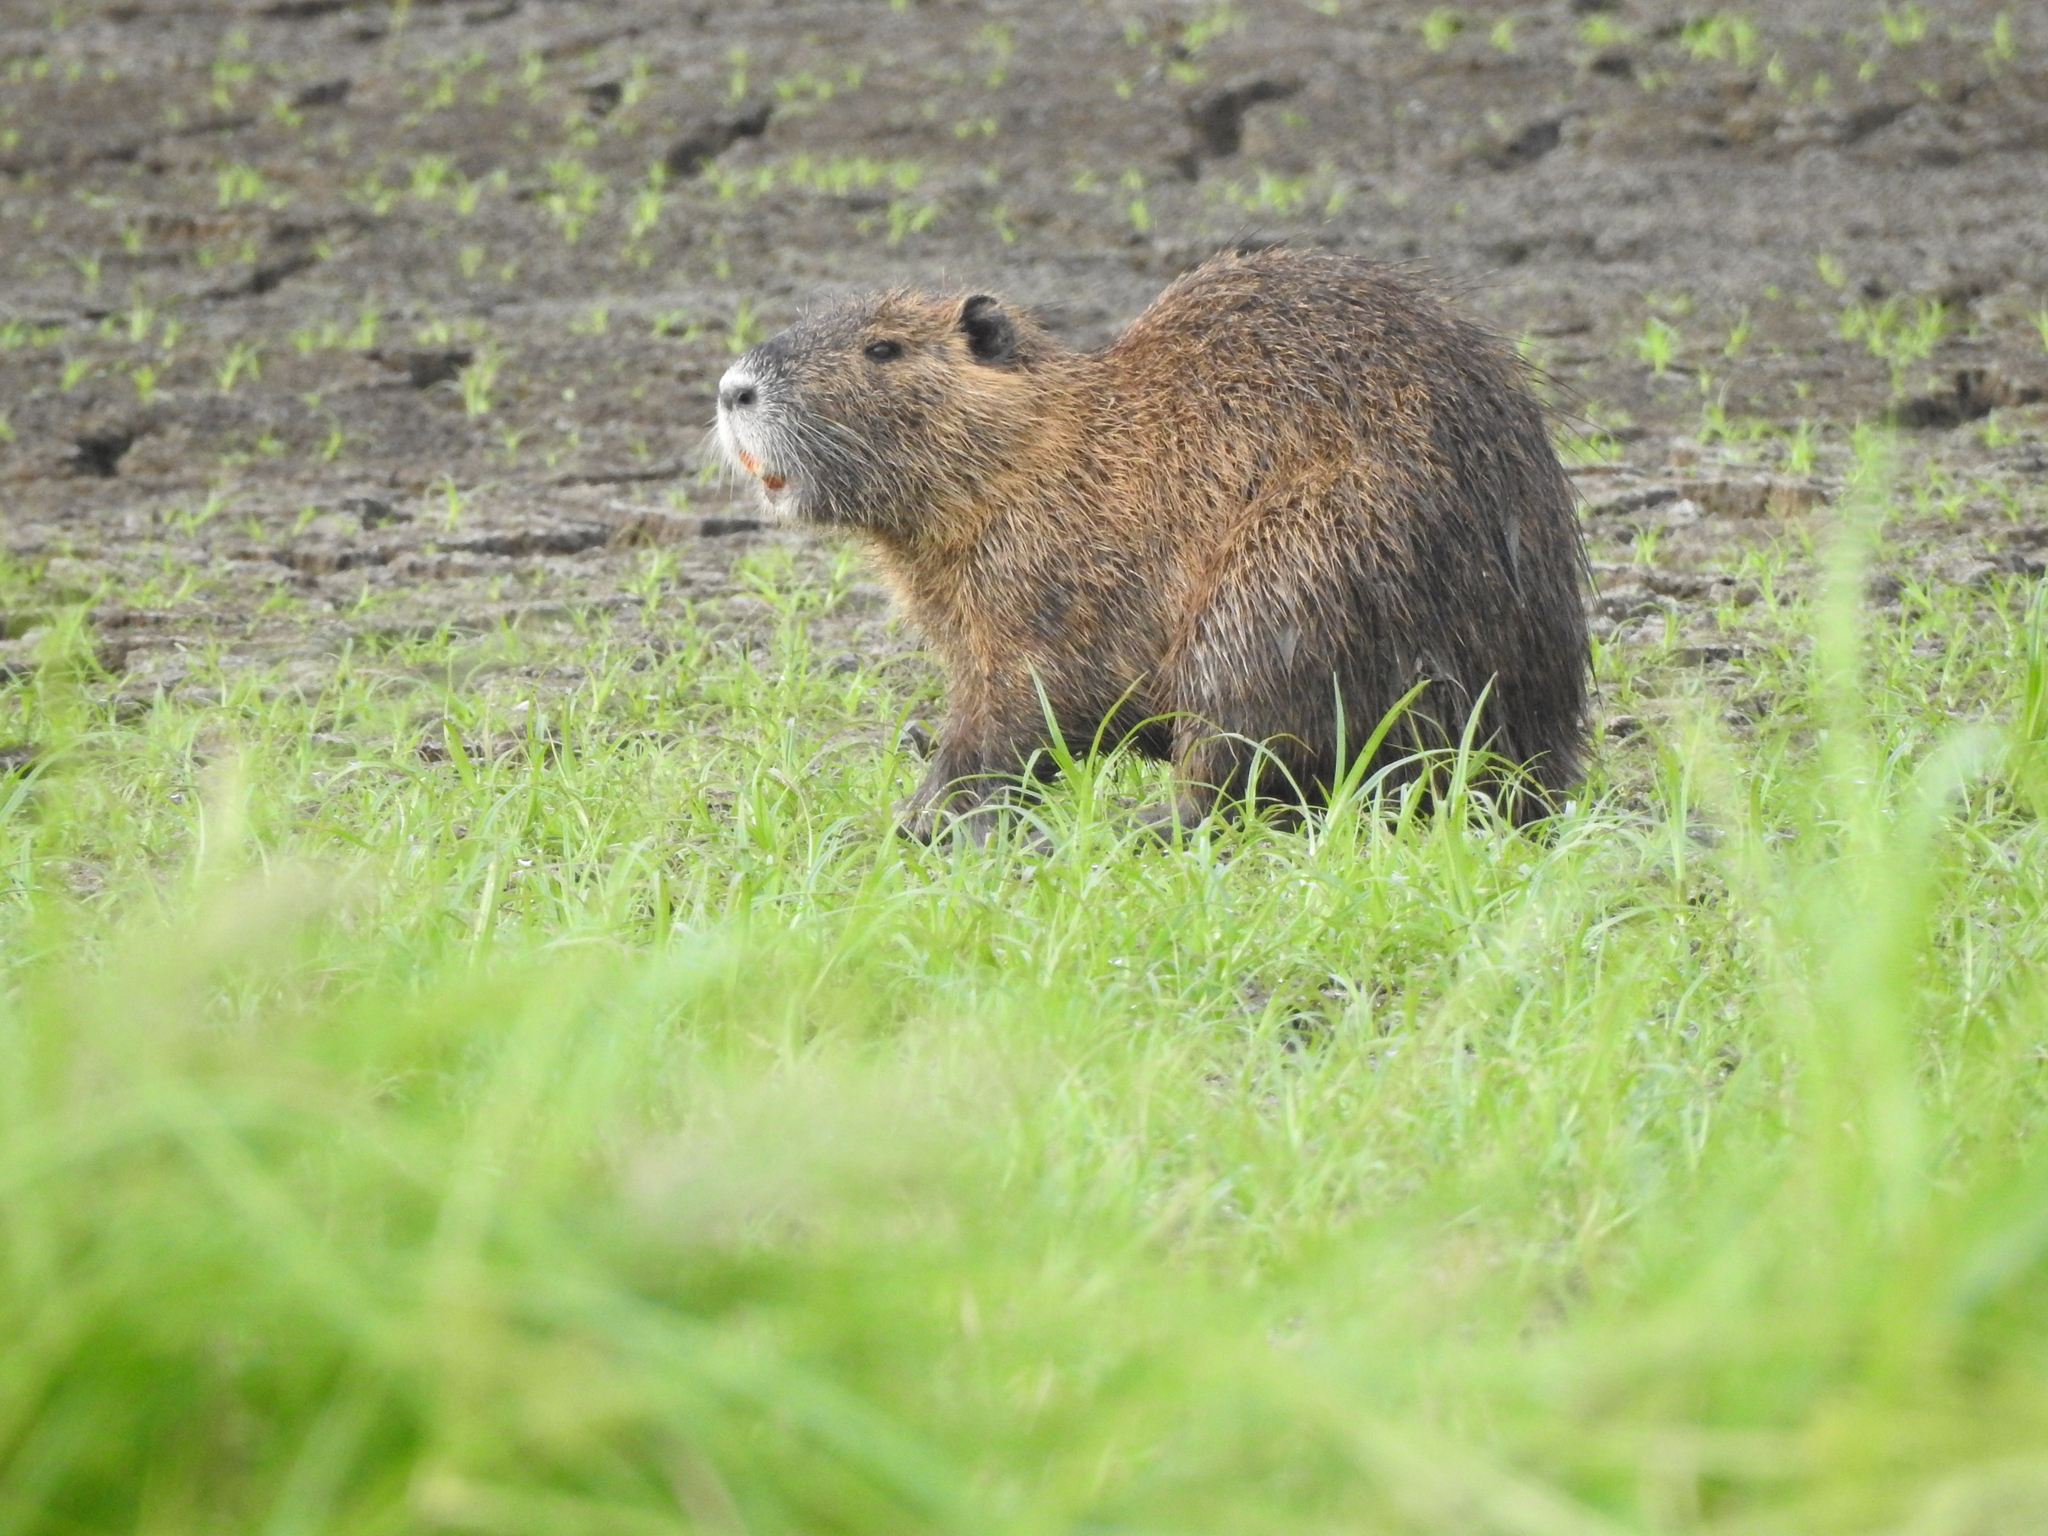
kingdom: Animalia
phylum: Chordata
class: Mammalia
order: Rodentia
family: Myocastoridae
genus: Myocastor
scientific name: Myocastor coypus
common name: Coypu
